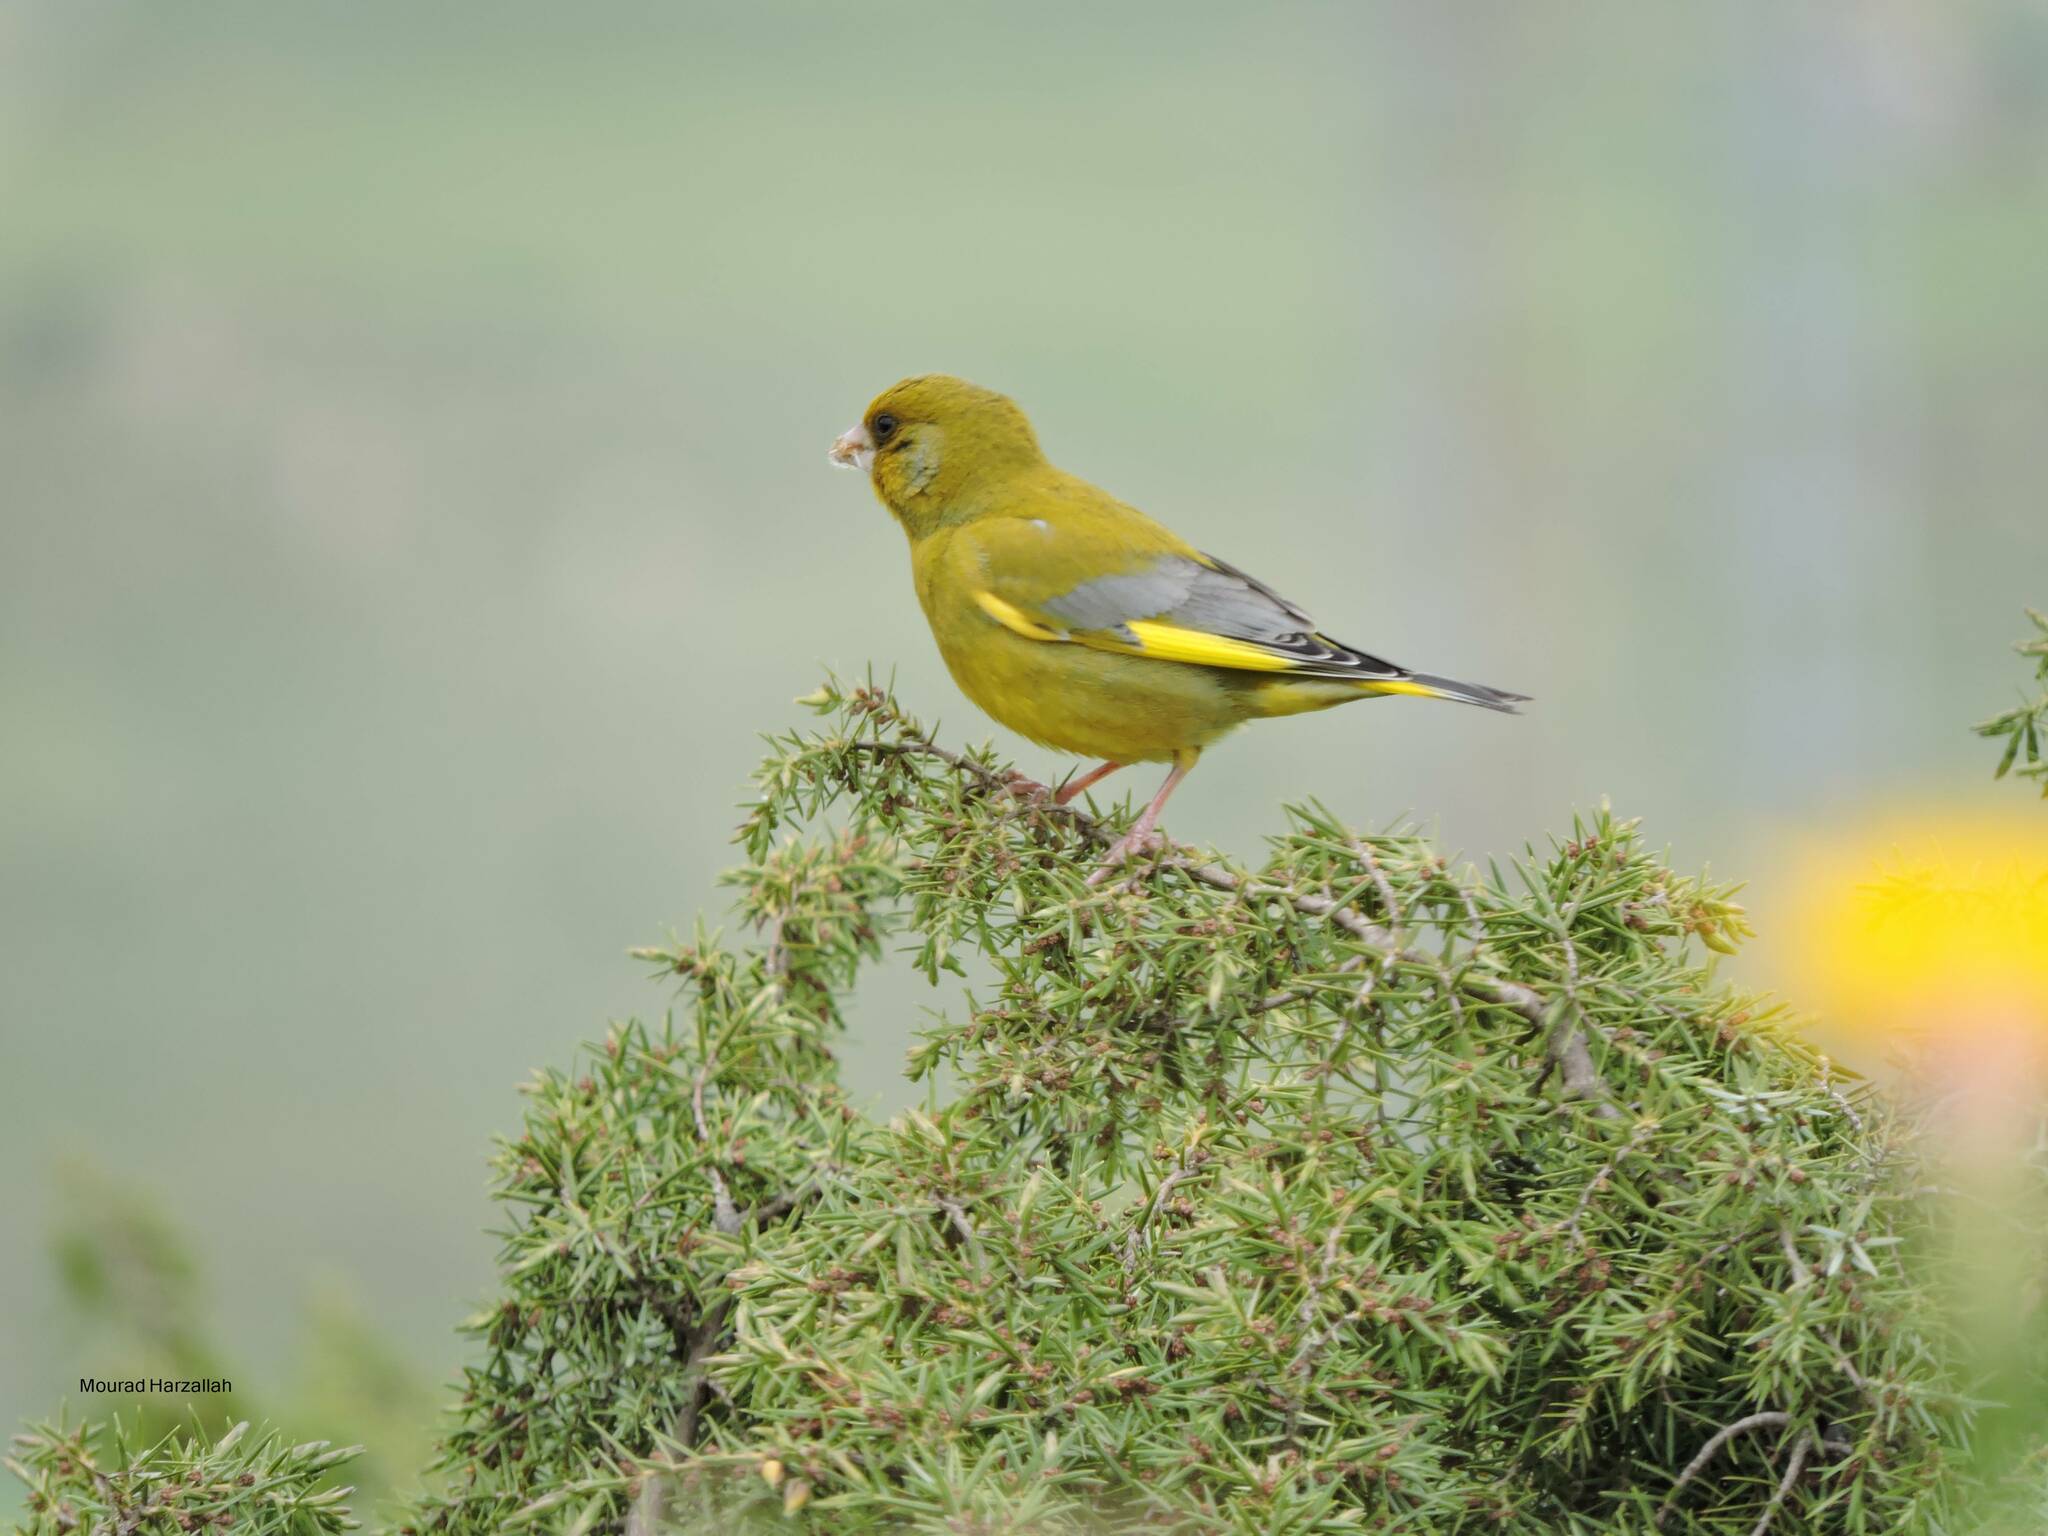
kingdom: Plantae
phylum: Tracheophyta
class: Liliopsida
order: Poales
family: Poaceae
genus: Chloris
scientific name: Chloris chloris
